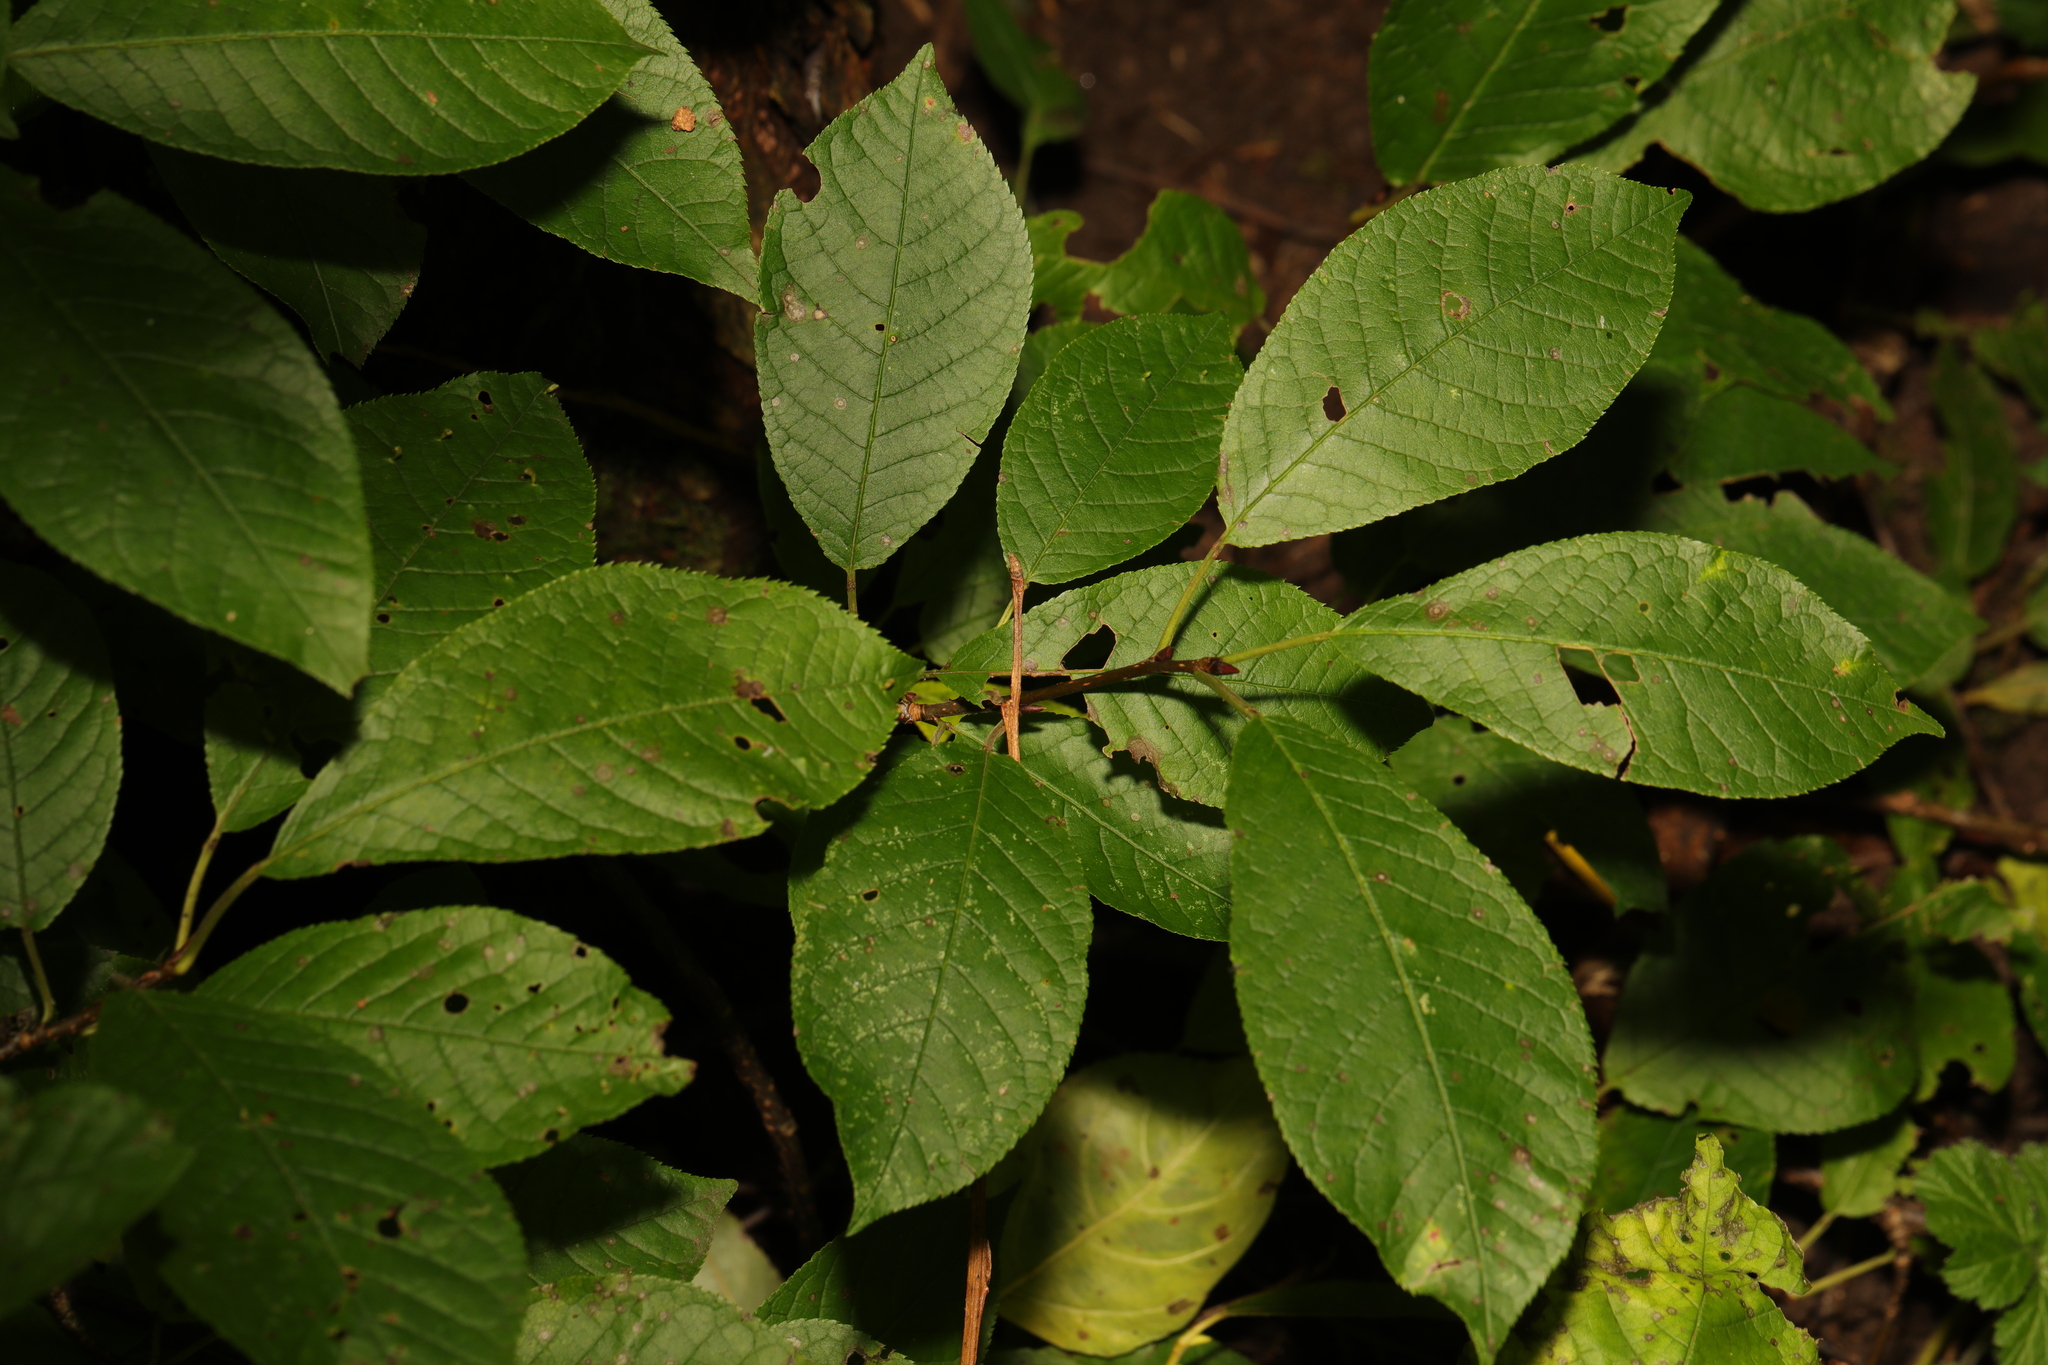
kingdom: Plantae
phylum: Tracheophyta
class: Magnoliopsida
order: Rosales
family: Rosaceae
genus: Prunus
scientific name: Prunus padus
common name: Bird cherry
